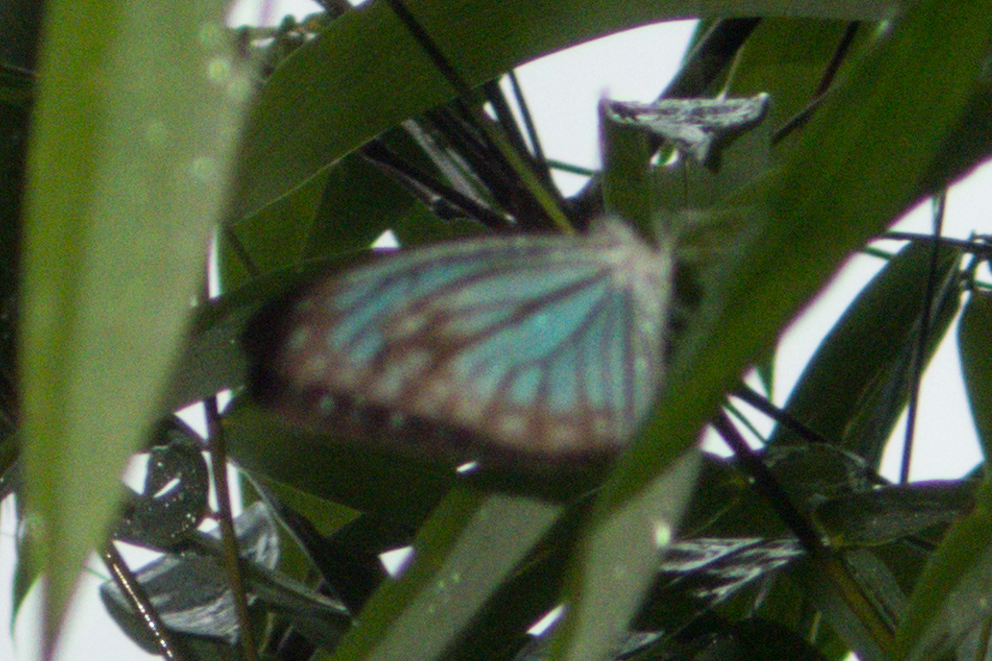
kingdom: Animalia
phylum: Arthropoda
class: Insecta
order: Lepidoptera
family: Pieridae
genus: Pareronia
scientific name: Pareronia hippia
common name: Indian wanderer
